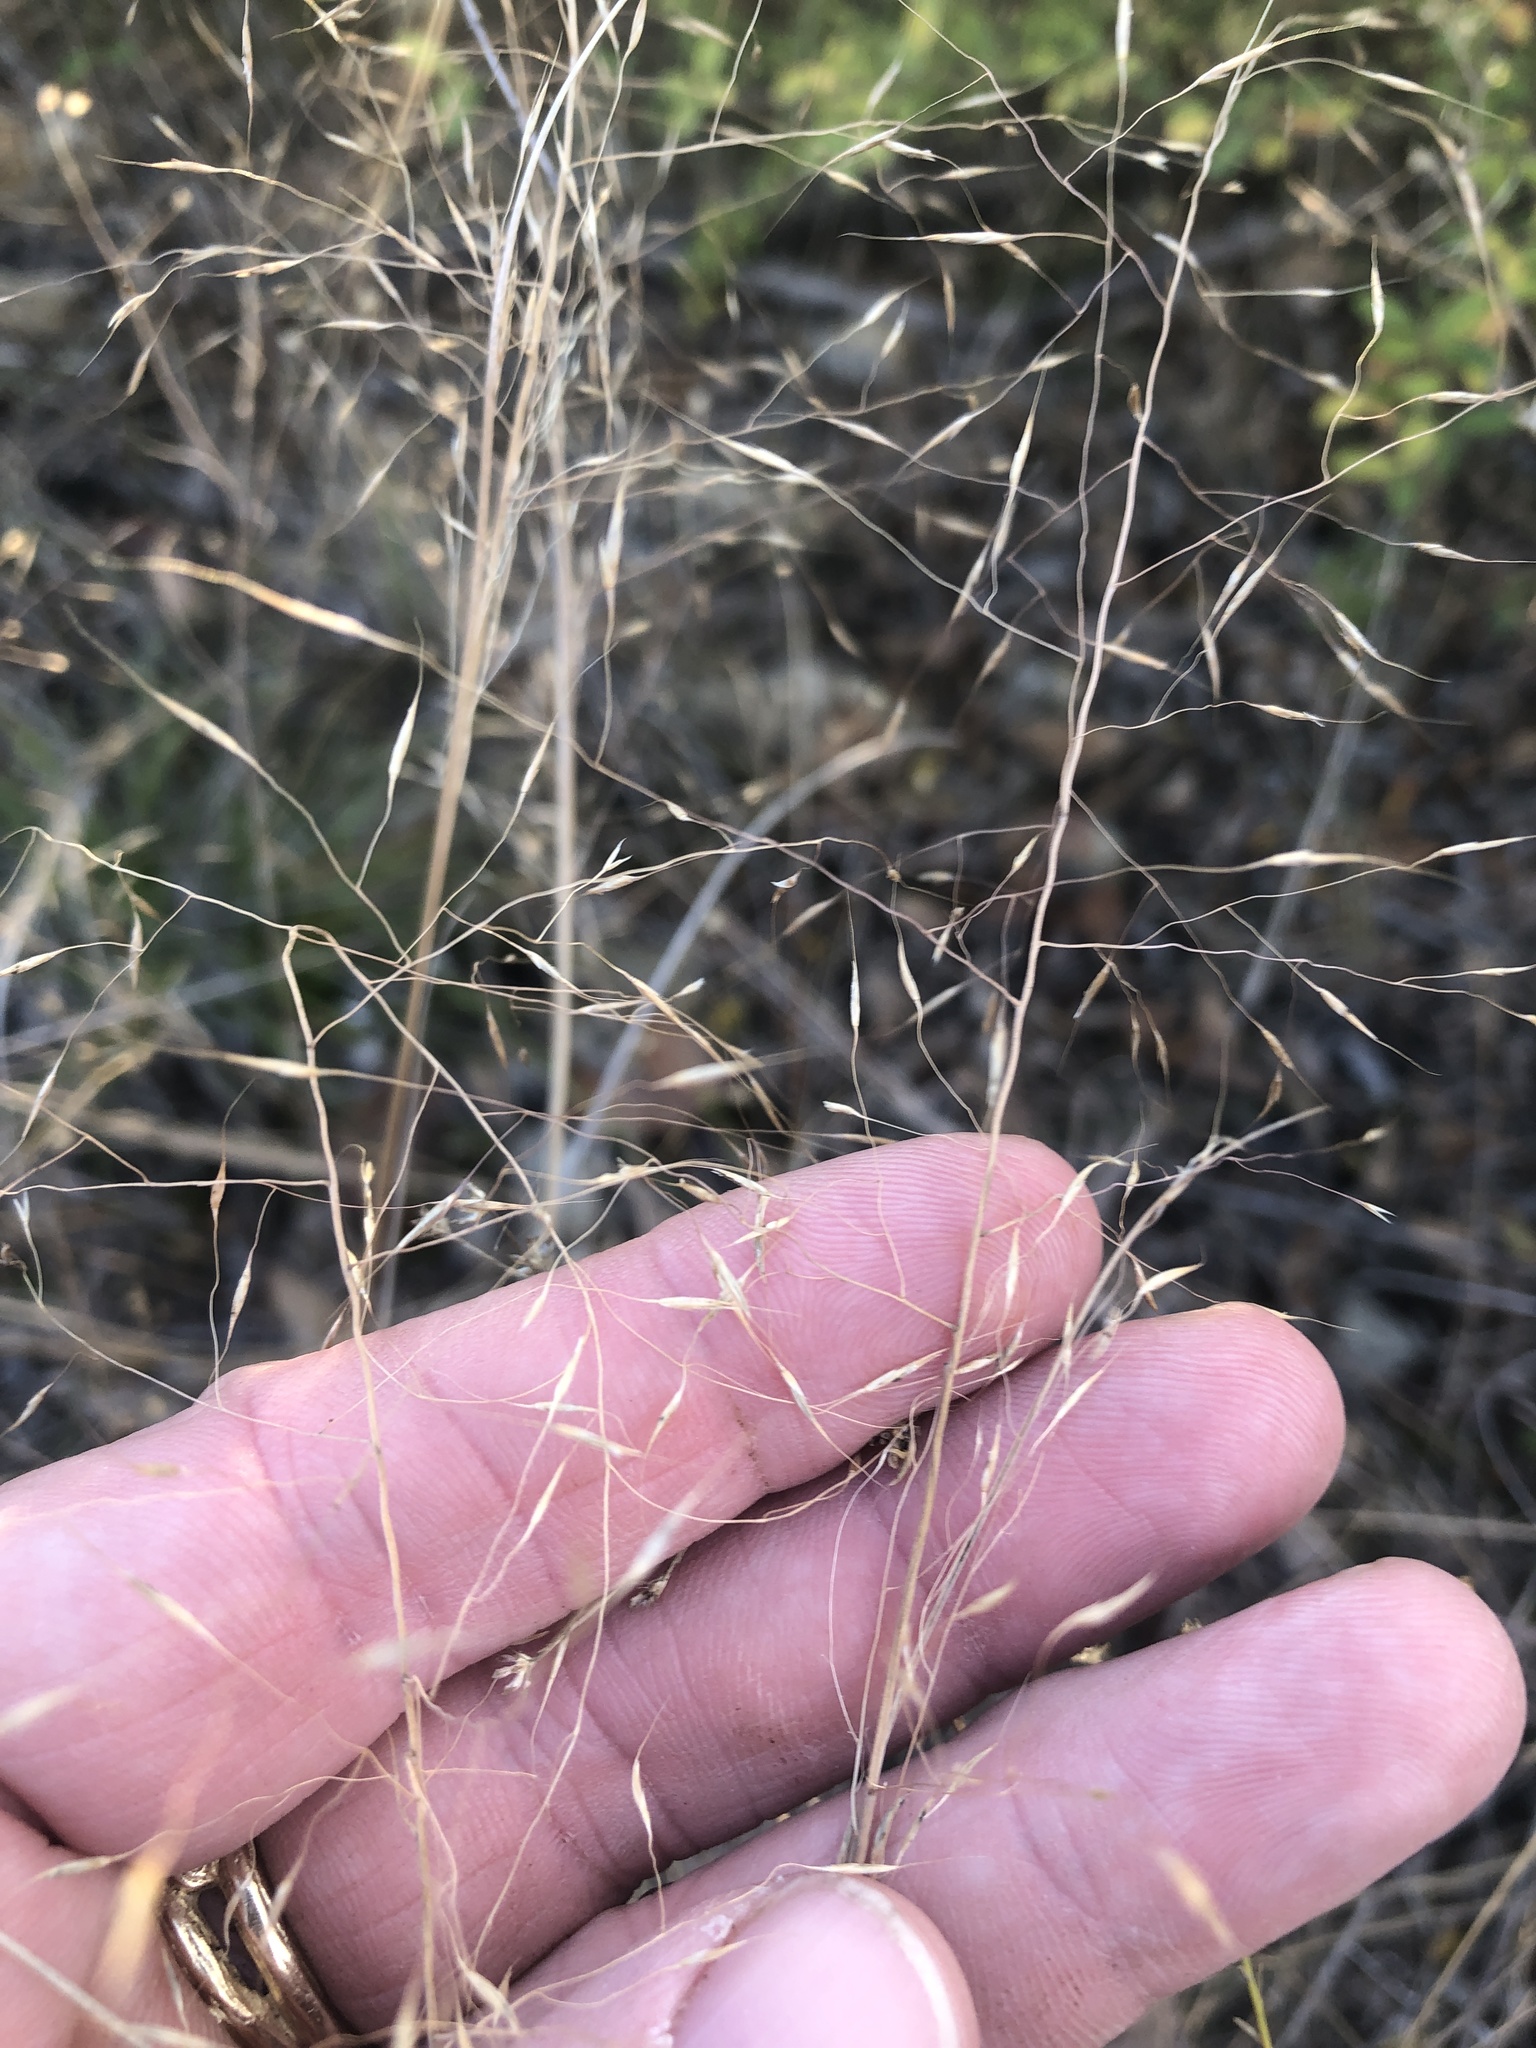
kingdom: Plantae
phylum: Tracheophyta
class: Liliopsida
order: Poales
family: Poaceae
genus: Muhlenbergia
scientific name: Muhlenbergia reverchonii
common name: Seep muhly
